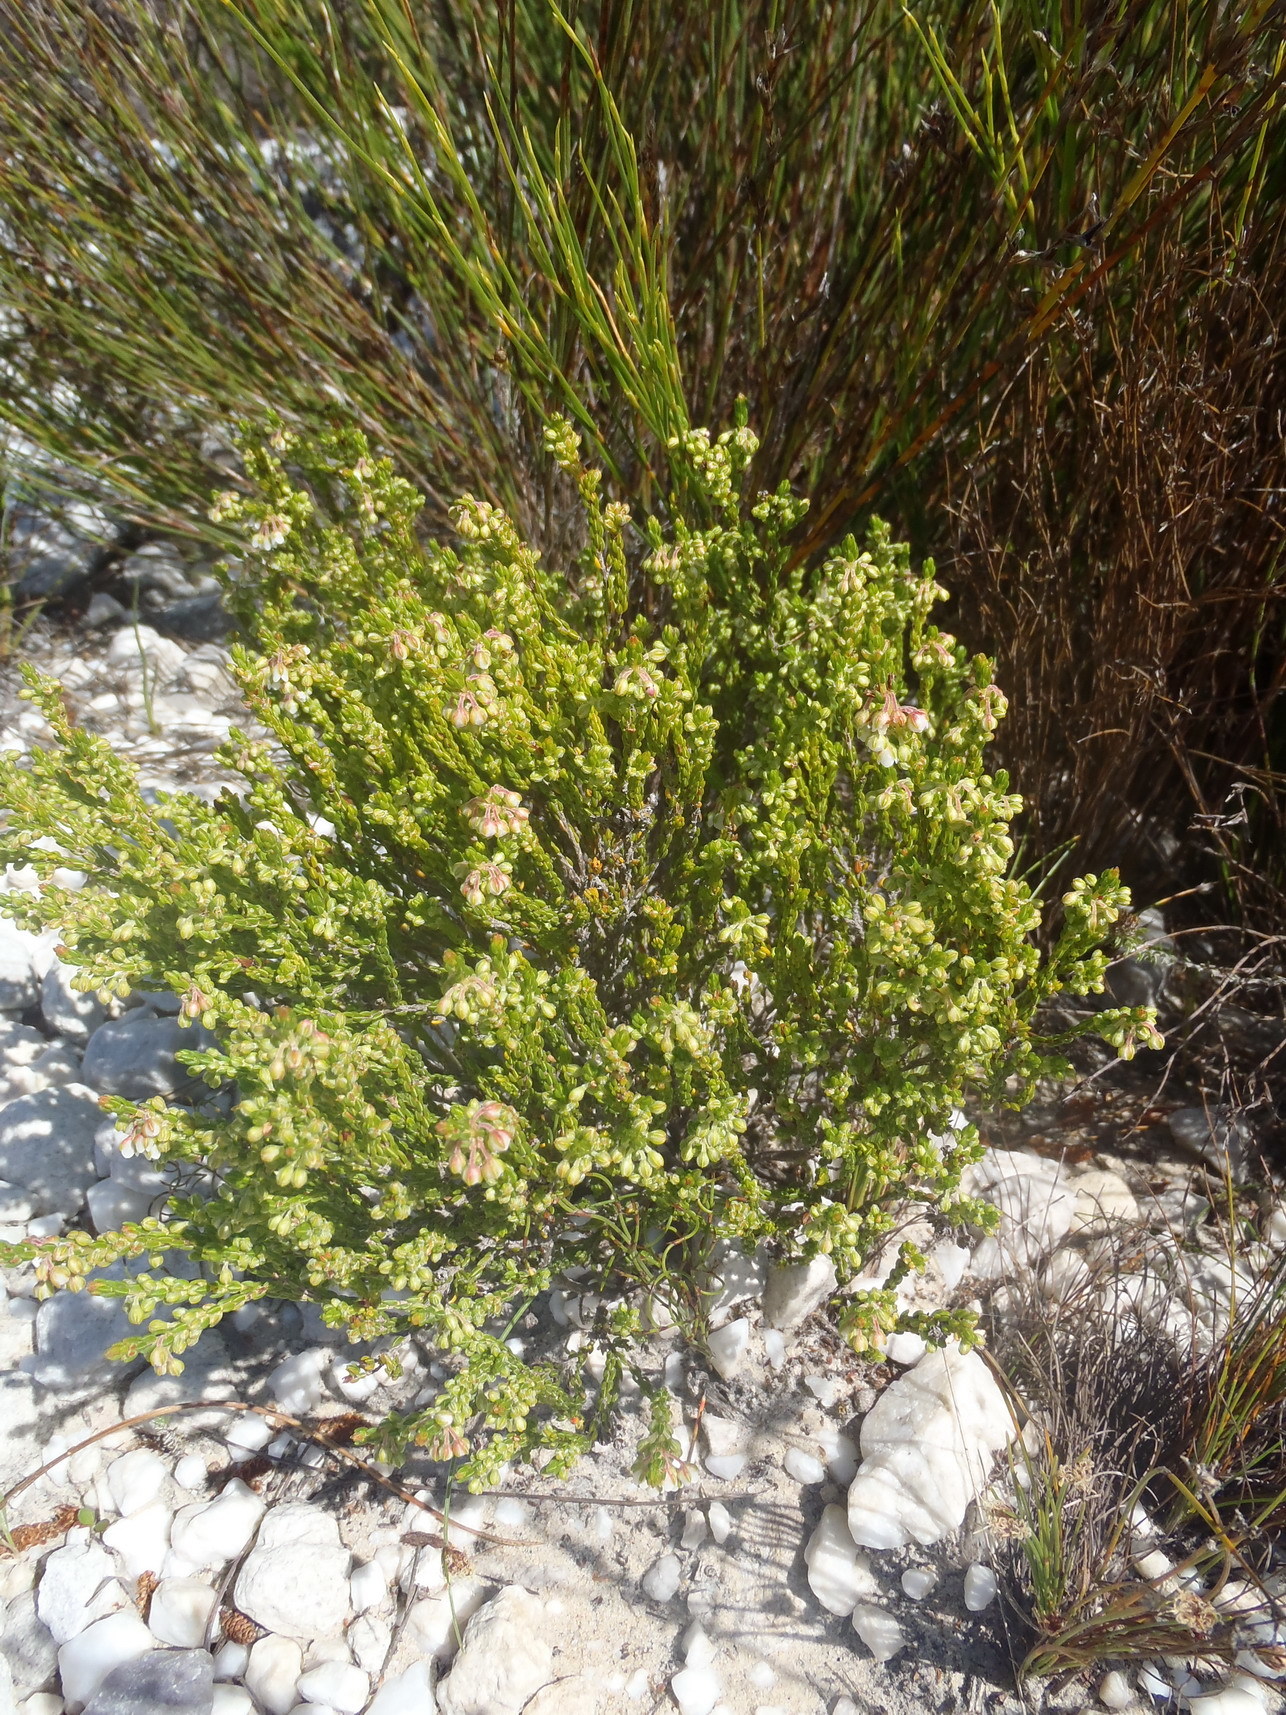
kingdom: Plantae
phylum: Tracheophyta
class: Magnoliopsida
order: Ericales
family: Ericaceae
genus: Erica
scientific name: Erica subdivaricata
